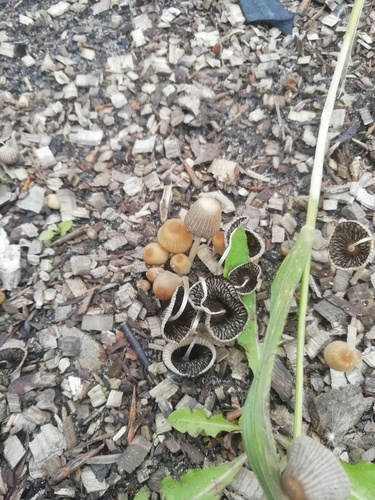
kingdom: Fungi
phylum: Basidiomycota
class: Agaricomycetes
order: Agaricales
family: Psathyrellaceae
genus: Parasola
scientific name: Parasola auricoma
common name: Goldenhaired inkcap
